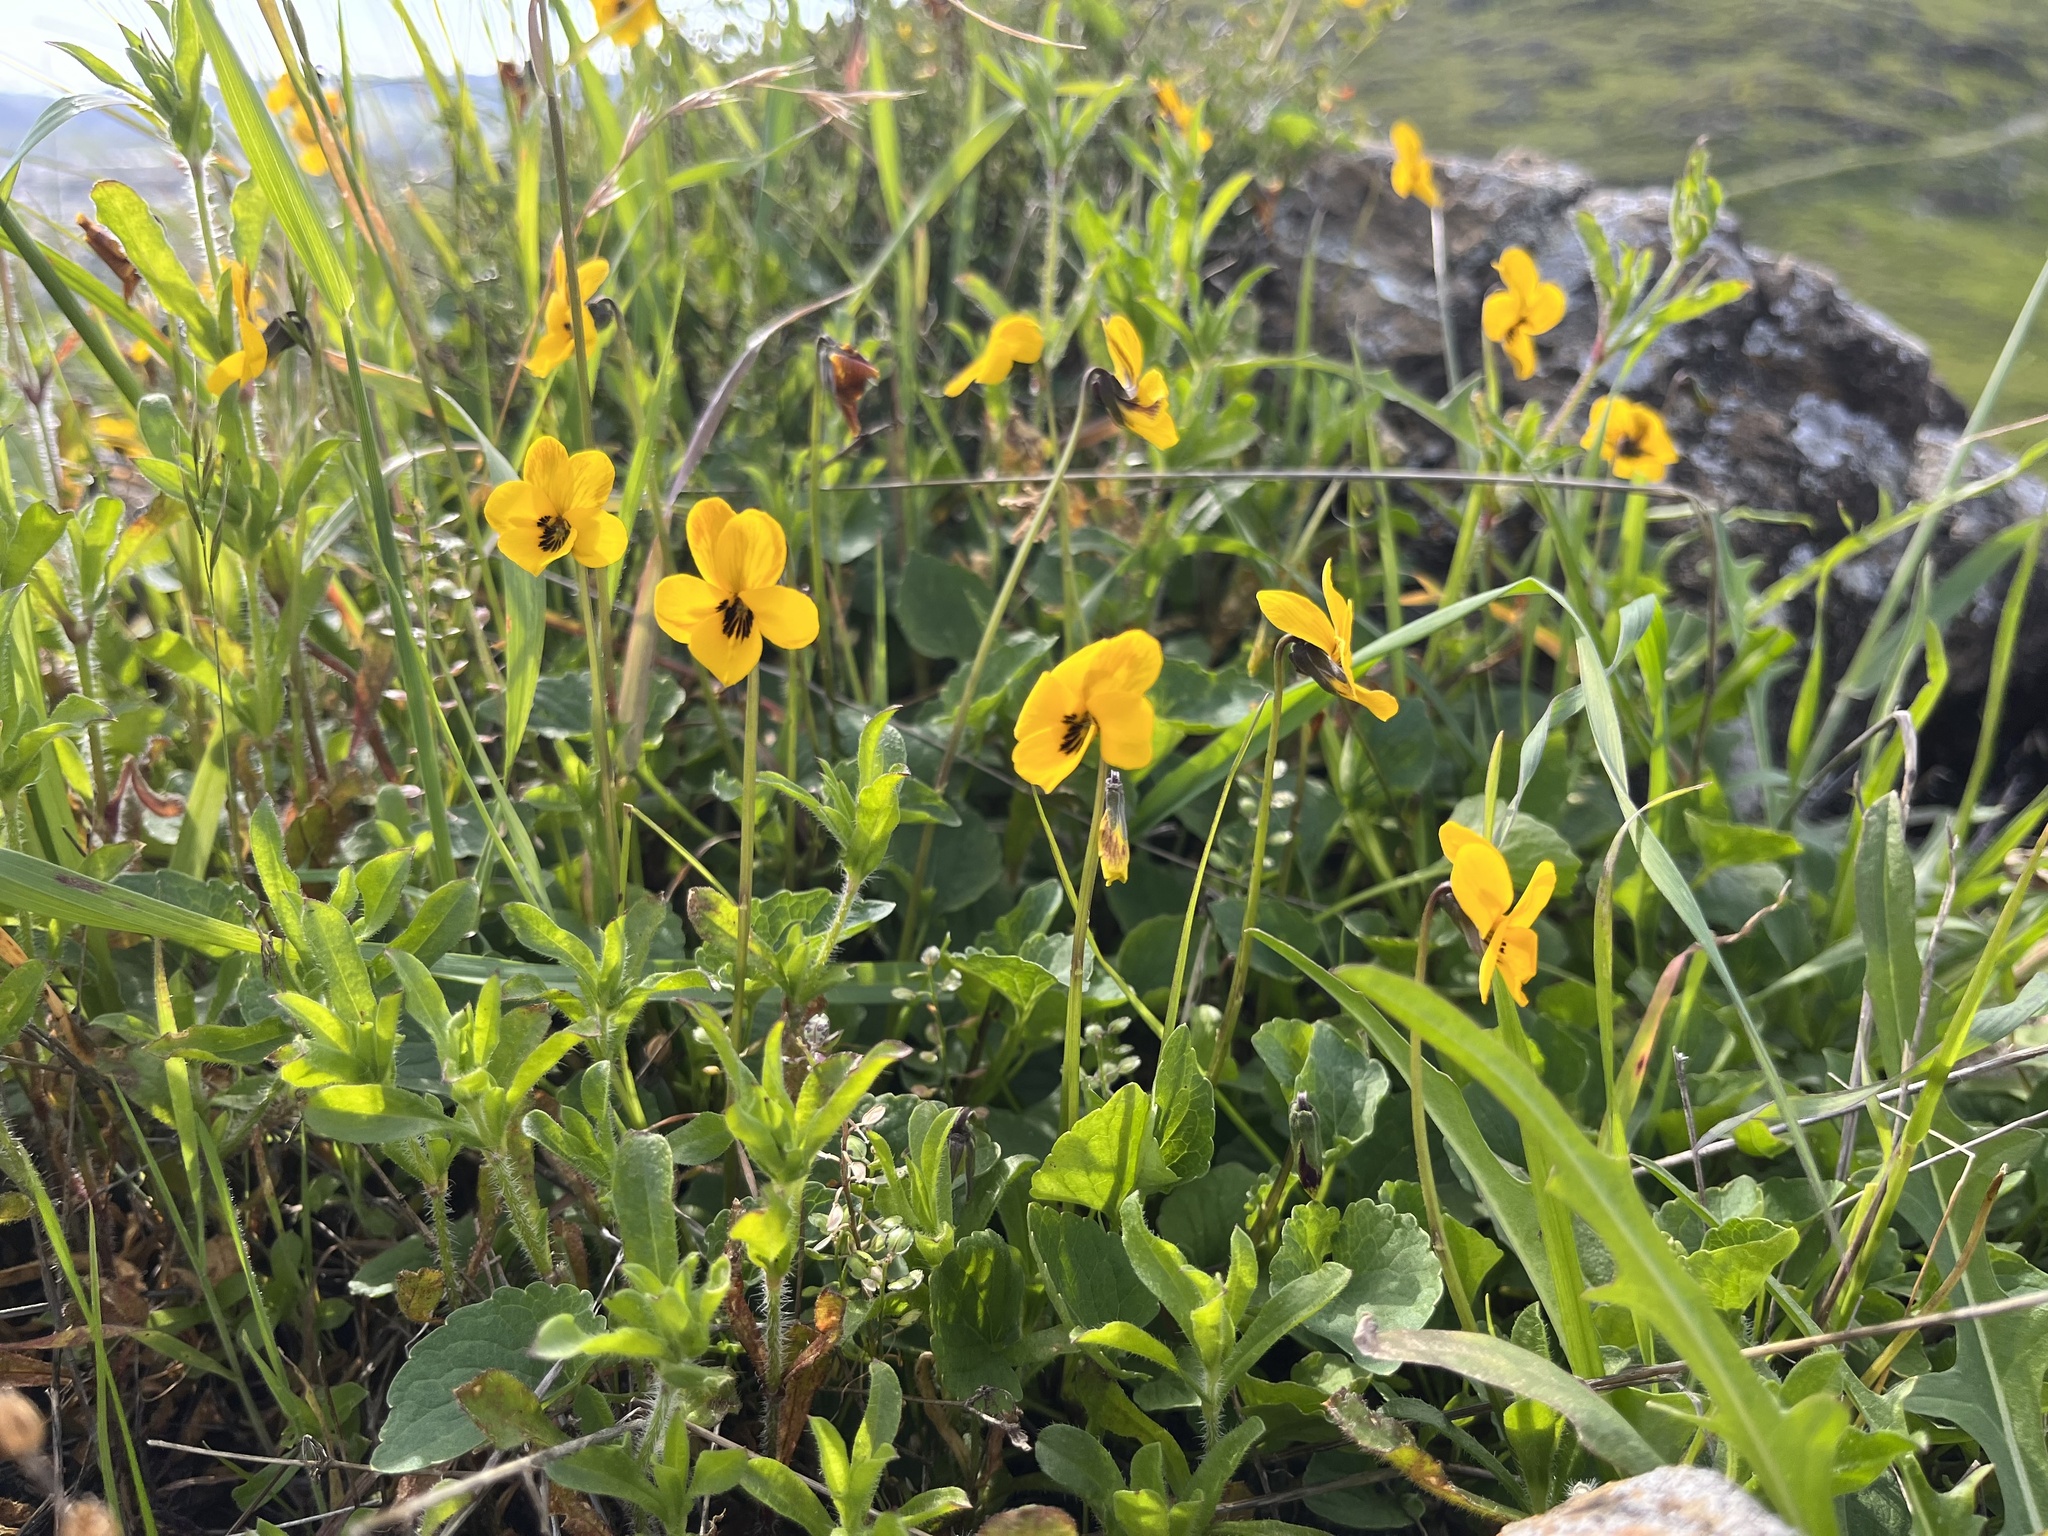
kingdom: Plantae
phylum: Tracheophyta
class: Magnoliopsida
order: Malpighiales
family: Violaceae
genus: Viola
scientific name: Viola pedunculata
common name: California golden violet
